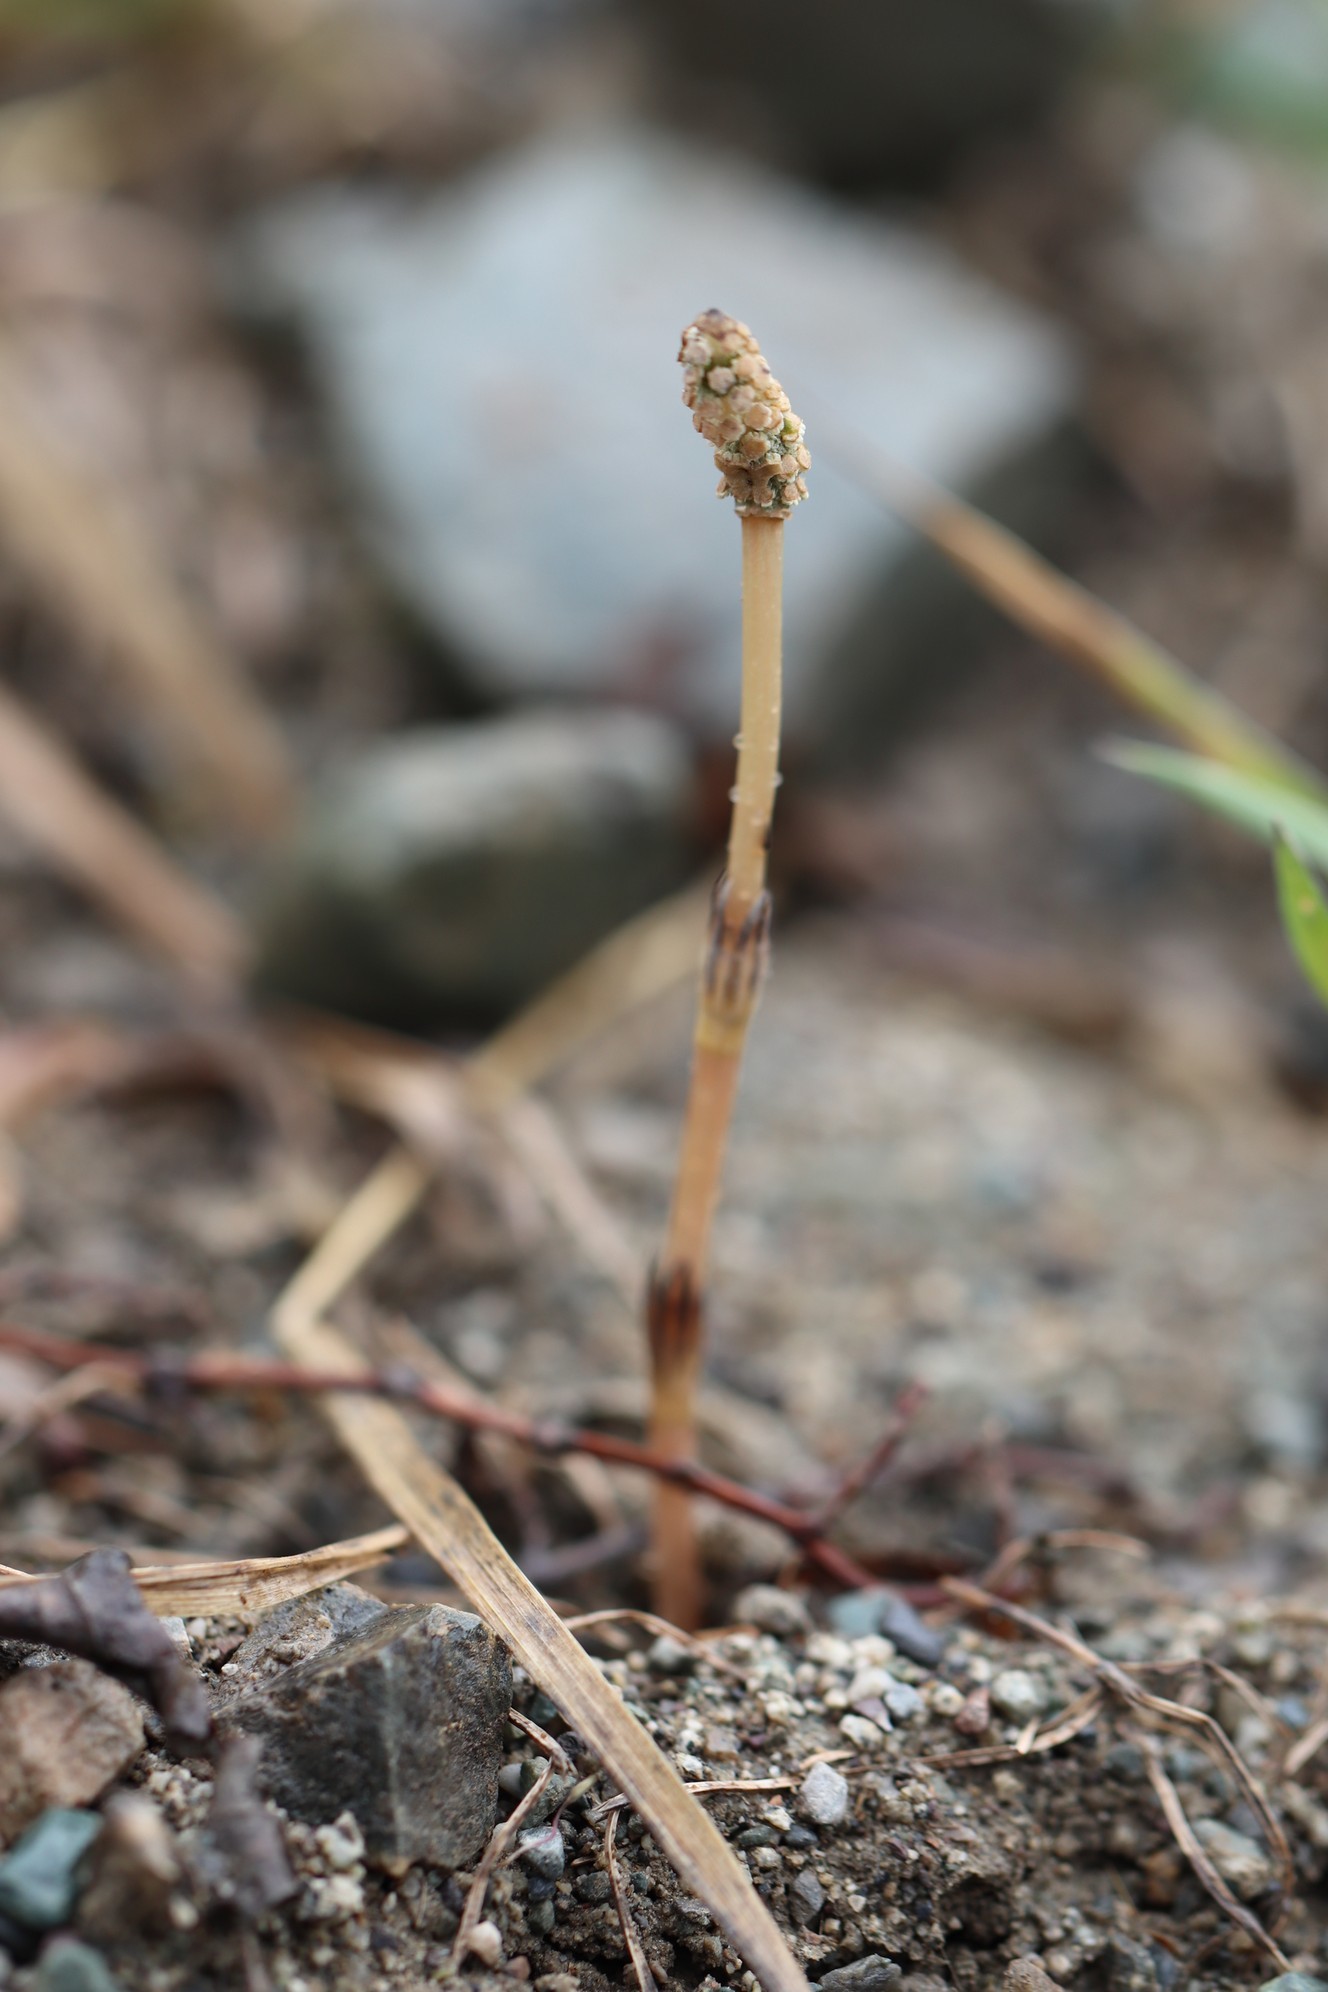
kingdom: Plantae
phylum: Tracheophyta
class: Polypodiopsida
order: Equisetales
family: Equisetaceae
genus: Equisetum
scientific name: Equisetum arvense
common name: Field horsetail
